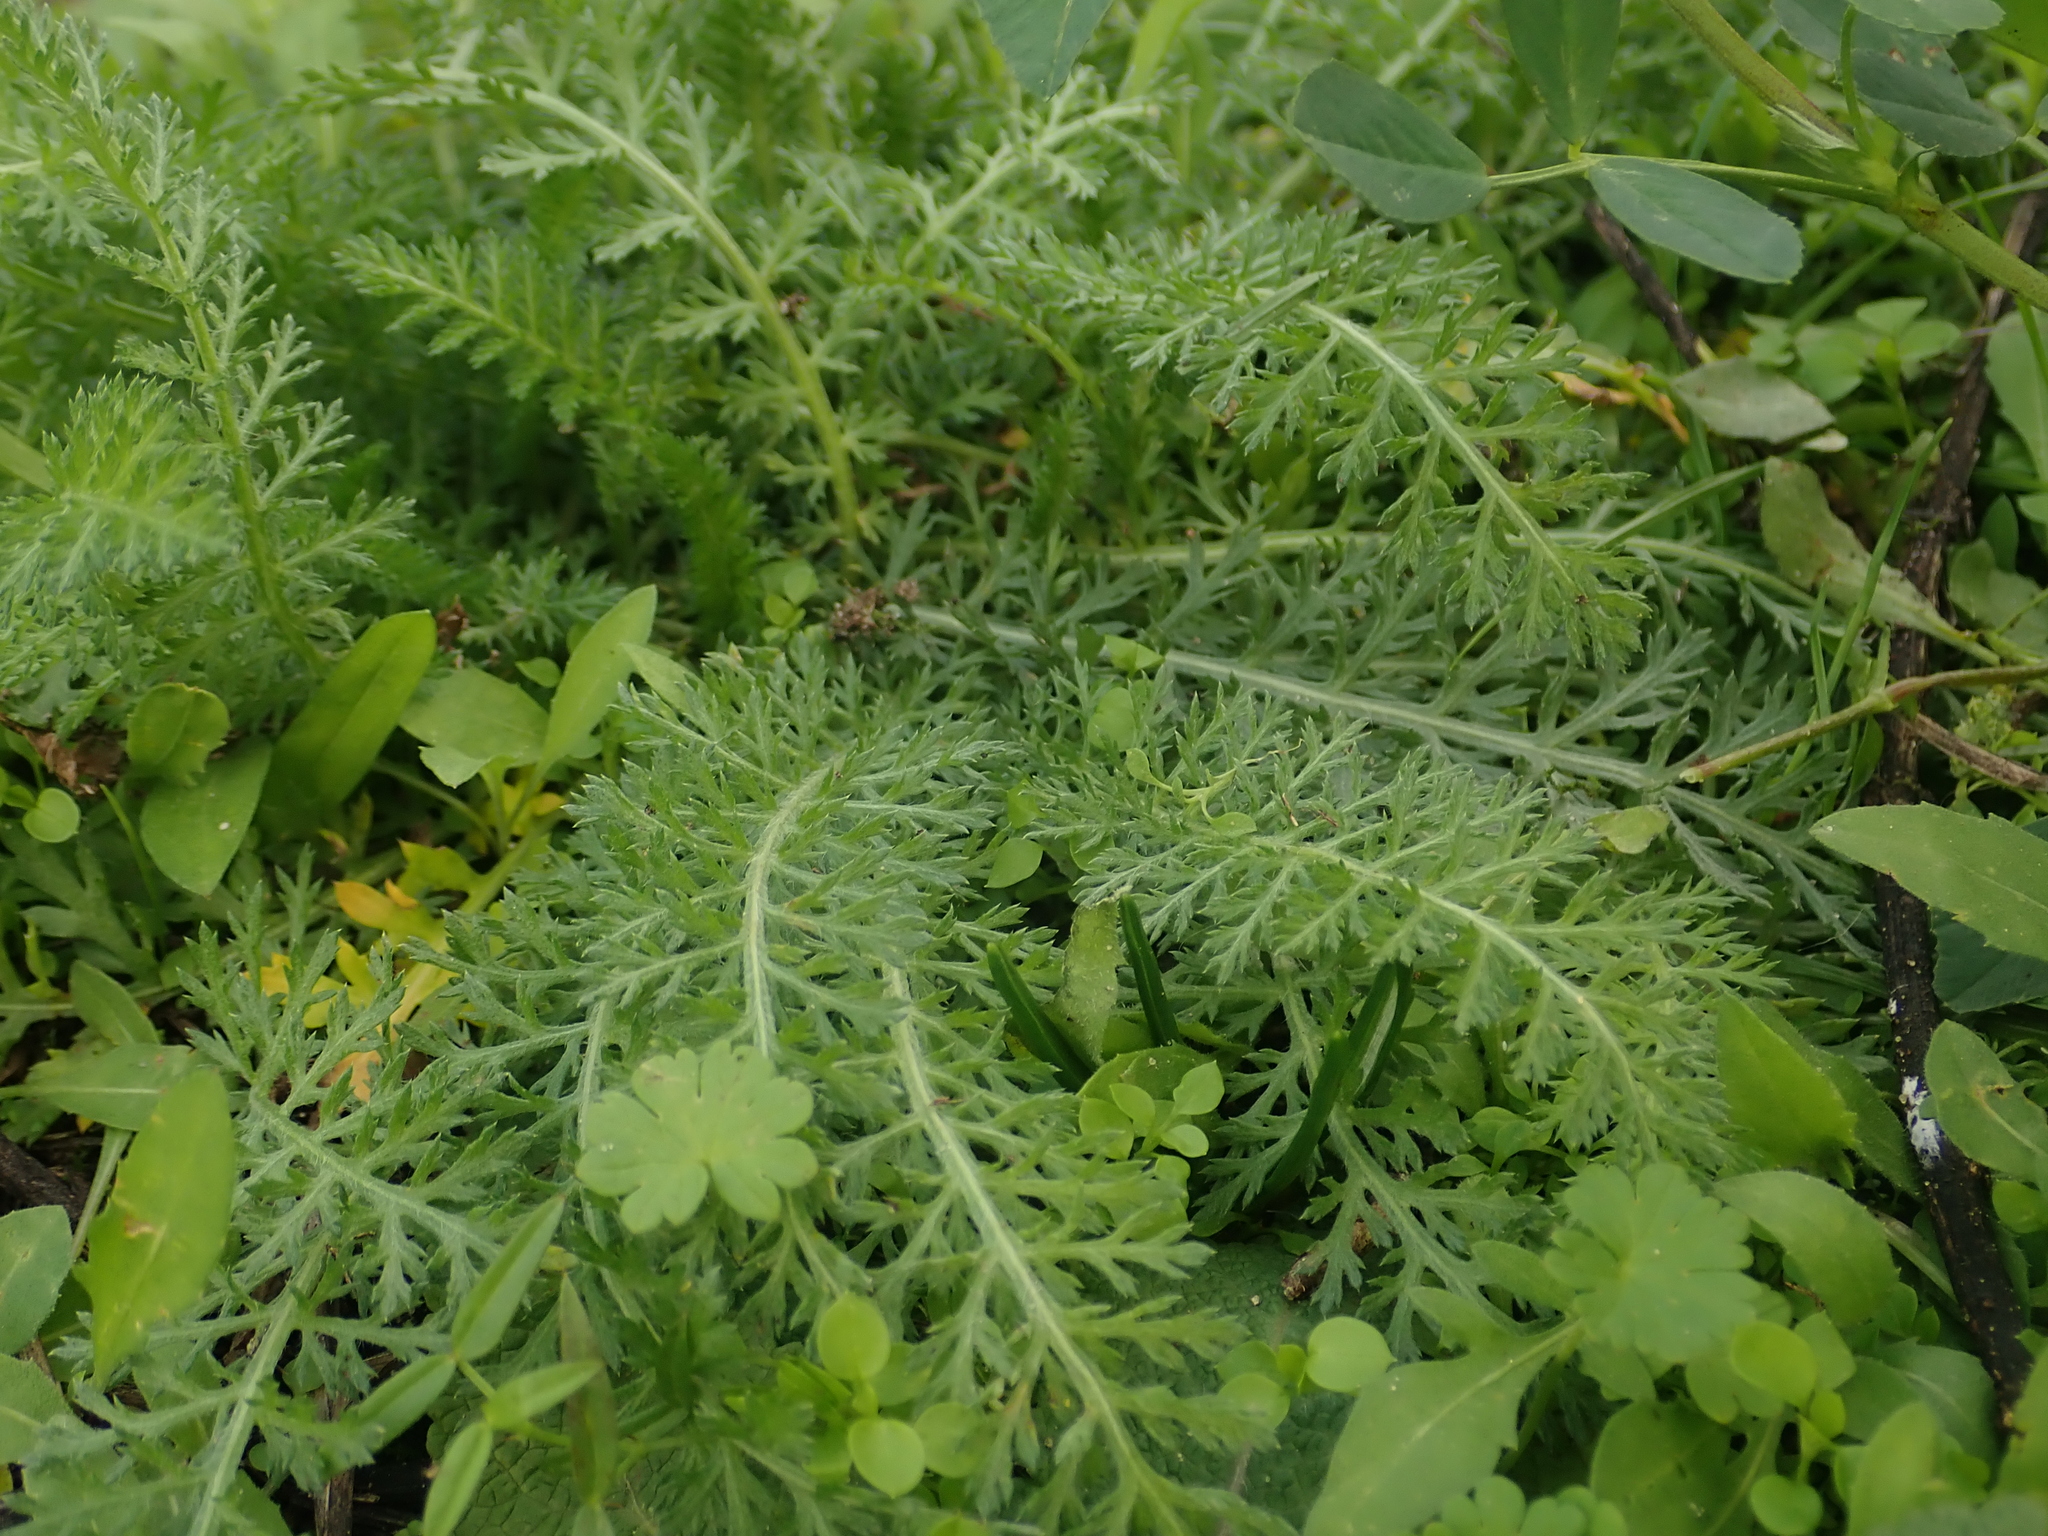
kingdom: Plantae
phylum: Tracheophyta
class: Magnoliopsida
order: Asterales
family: Asteraceae
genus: Achillea
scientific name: Achillea millefolium
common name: Yarrow
